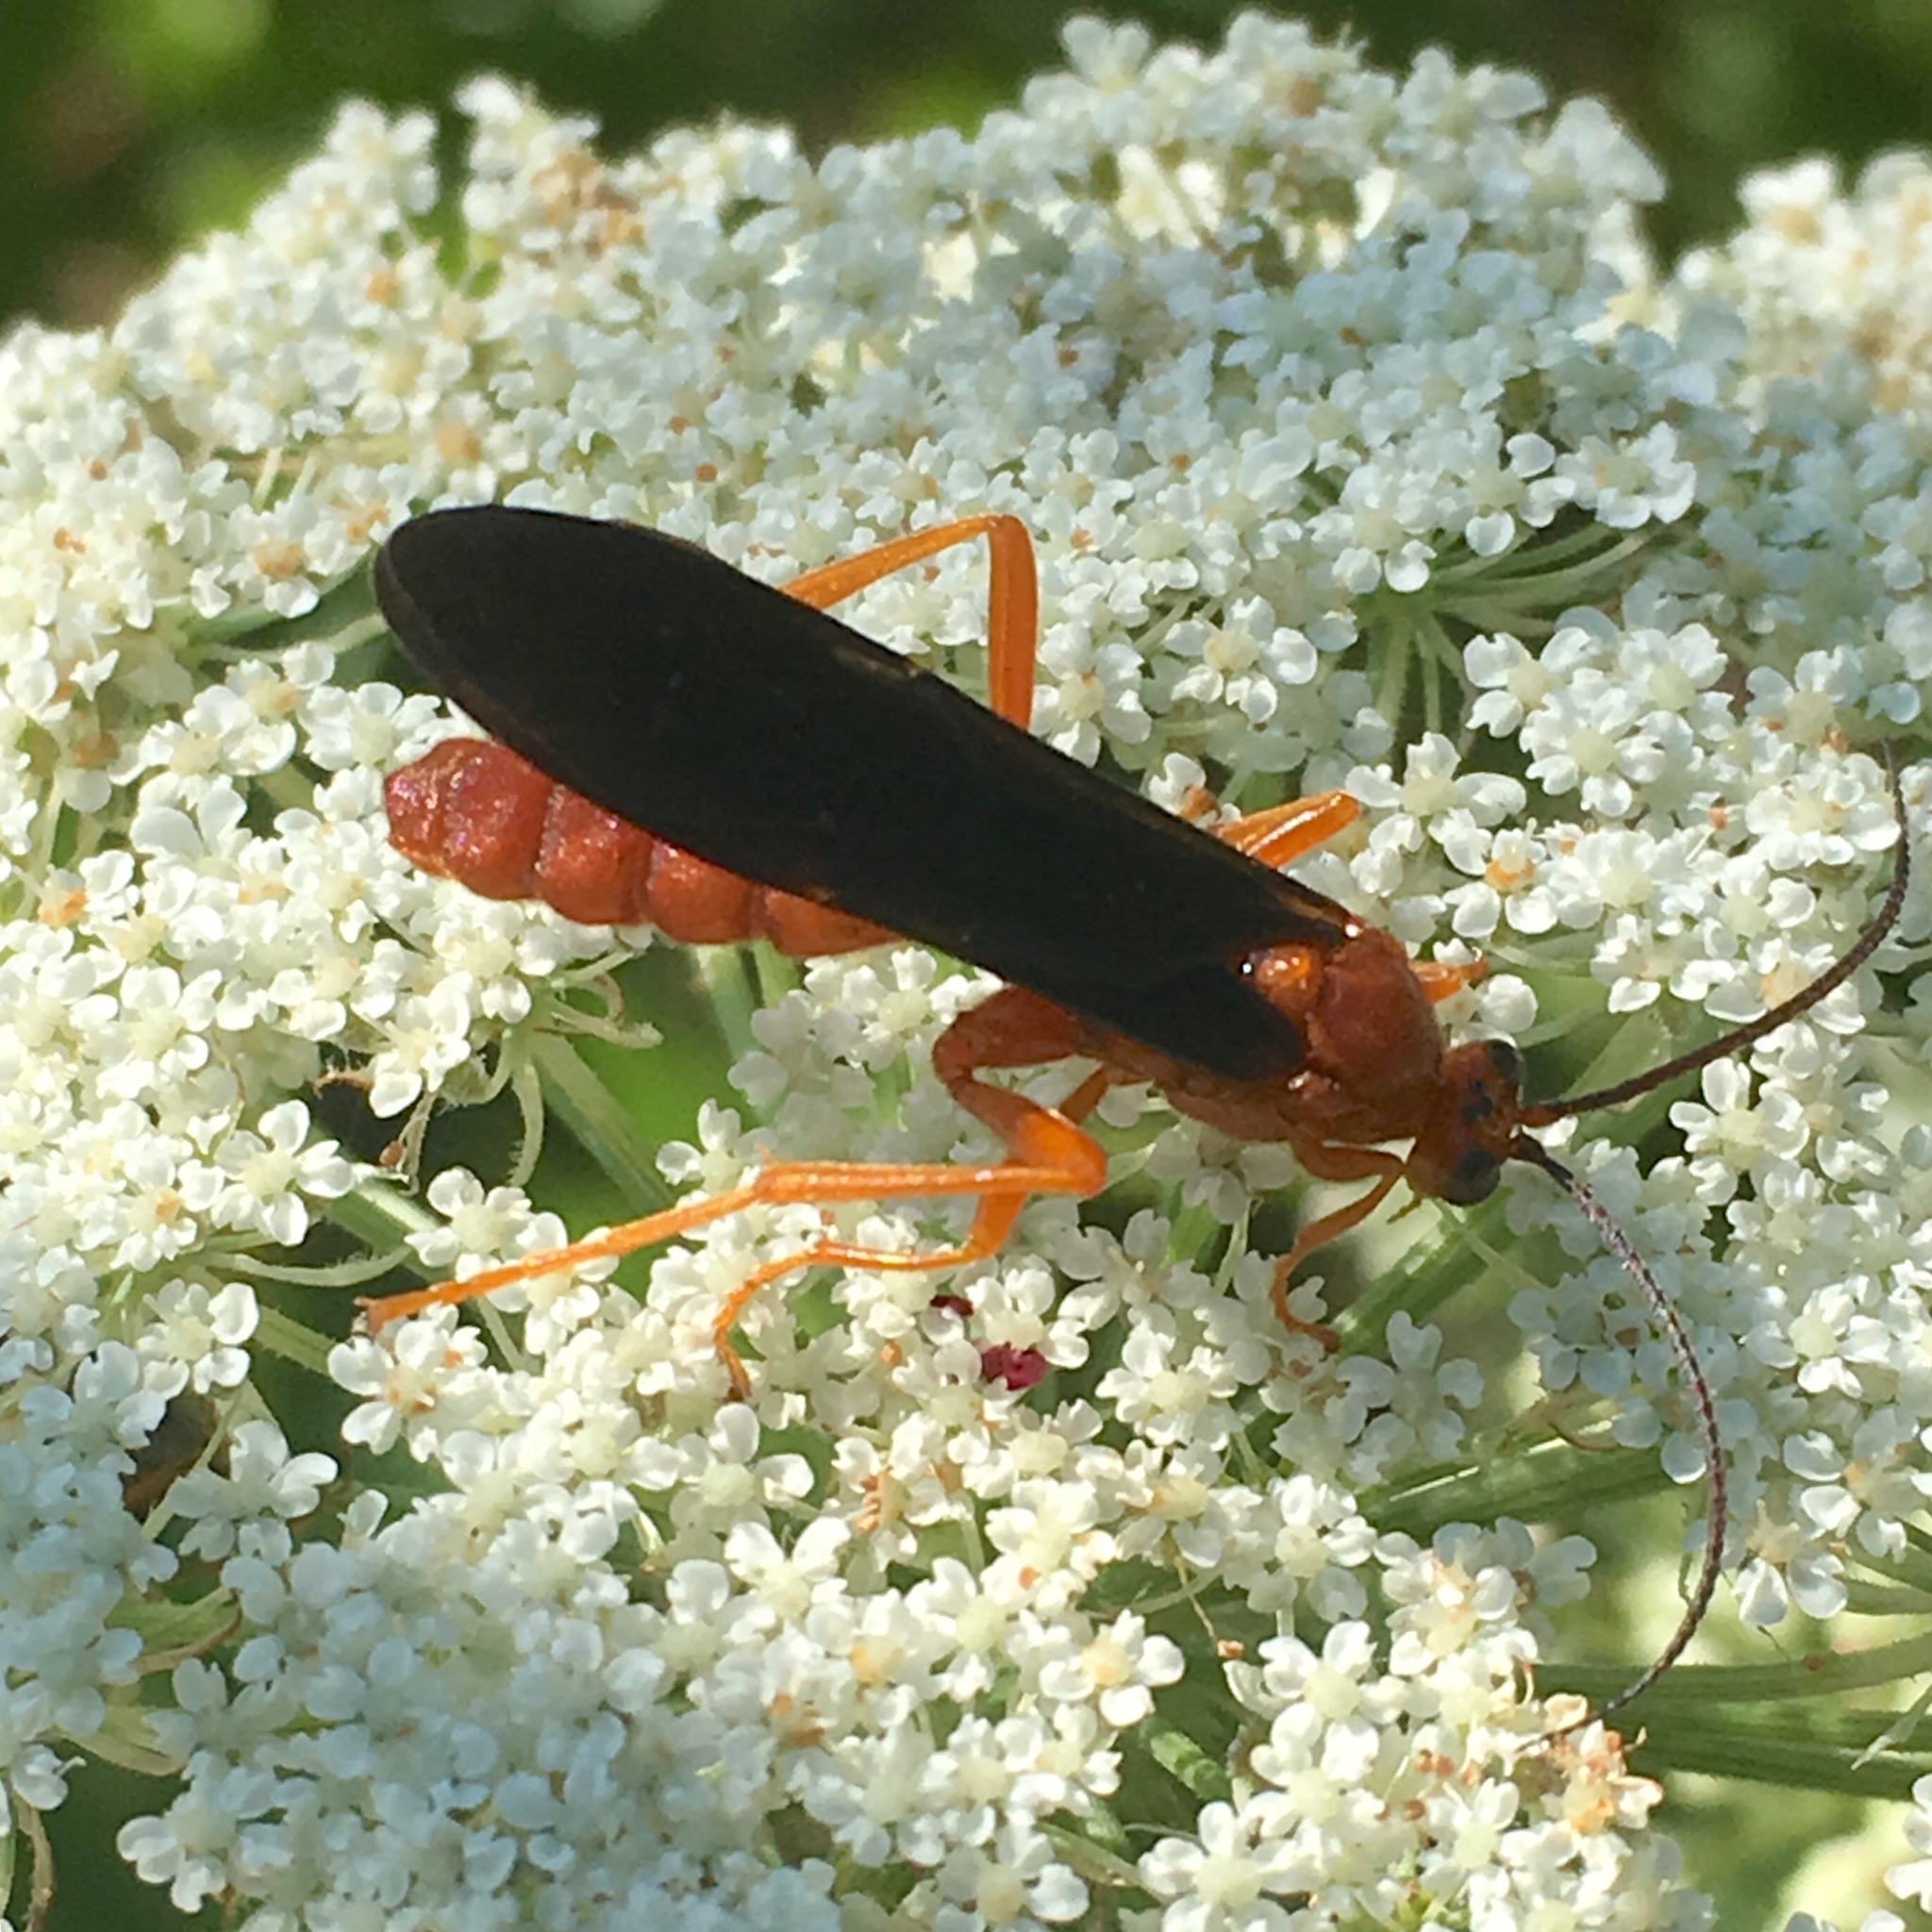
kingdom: Animalia
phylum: Arthropoda
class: Insecta
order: Hymenoptera
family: Ichneumonidae
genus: Trogus
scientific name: Trogus pennator
